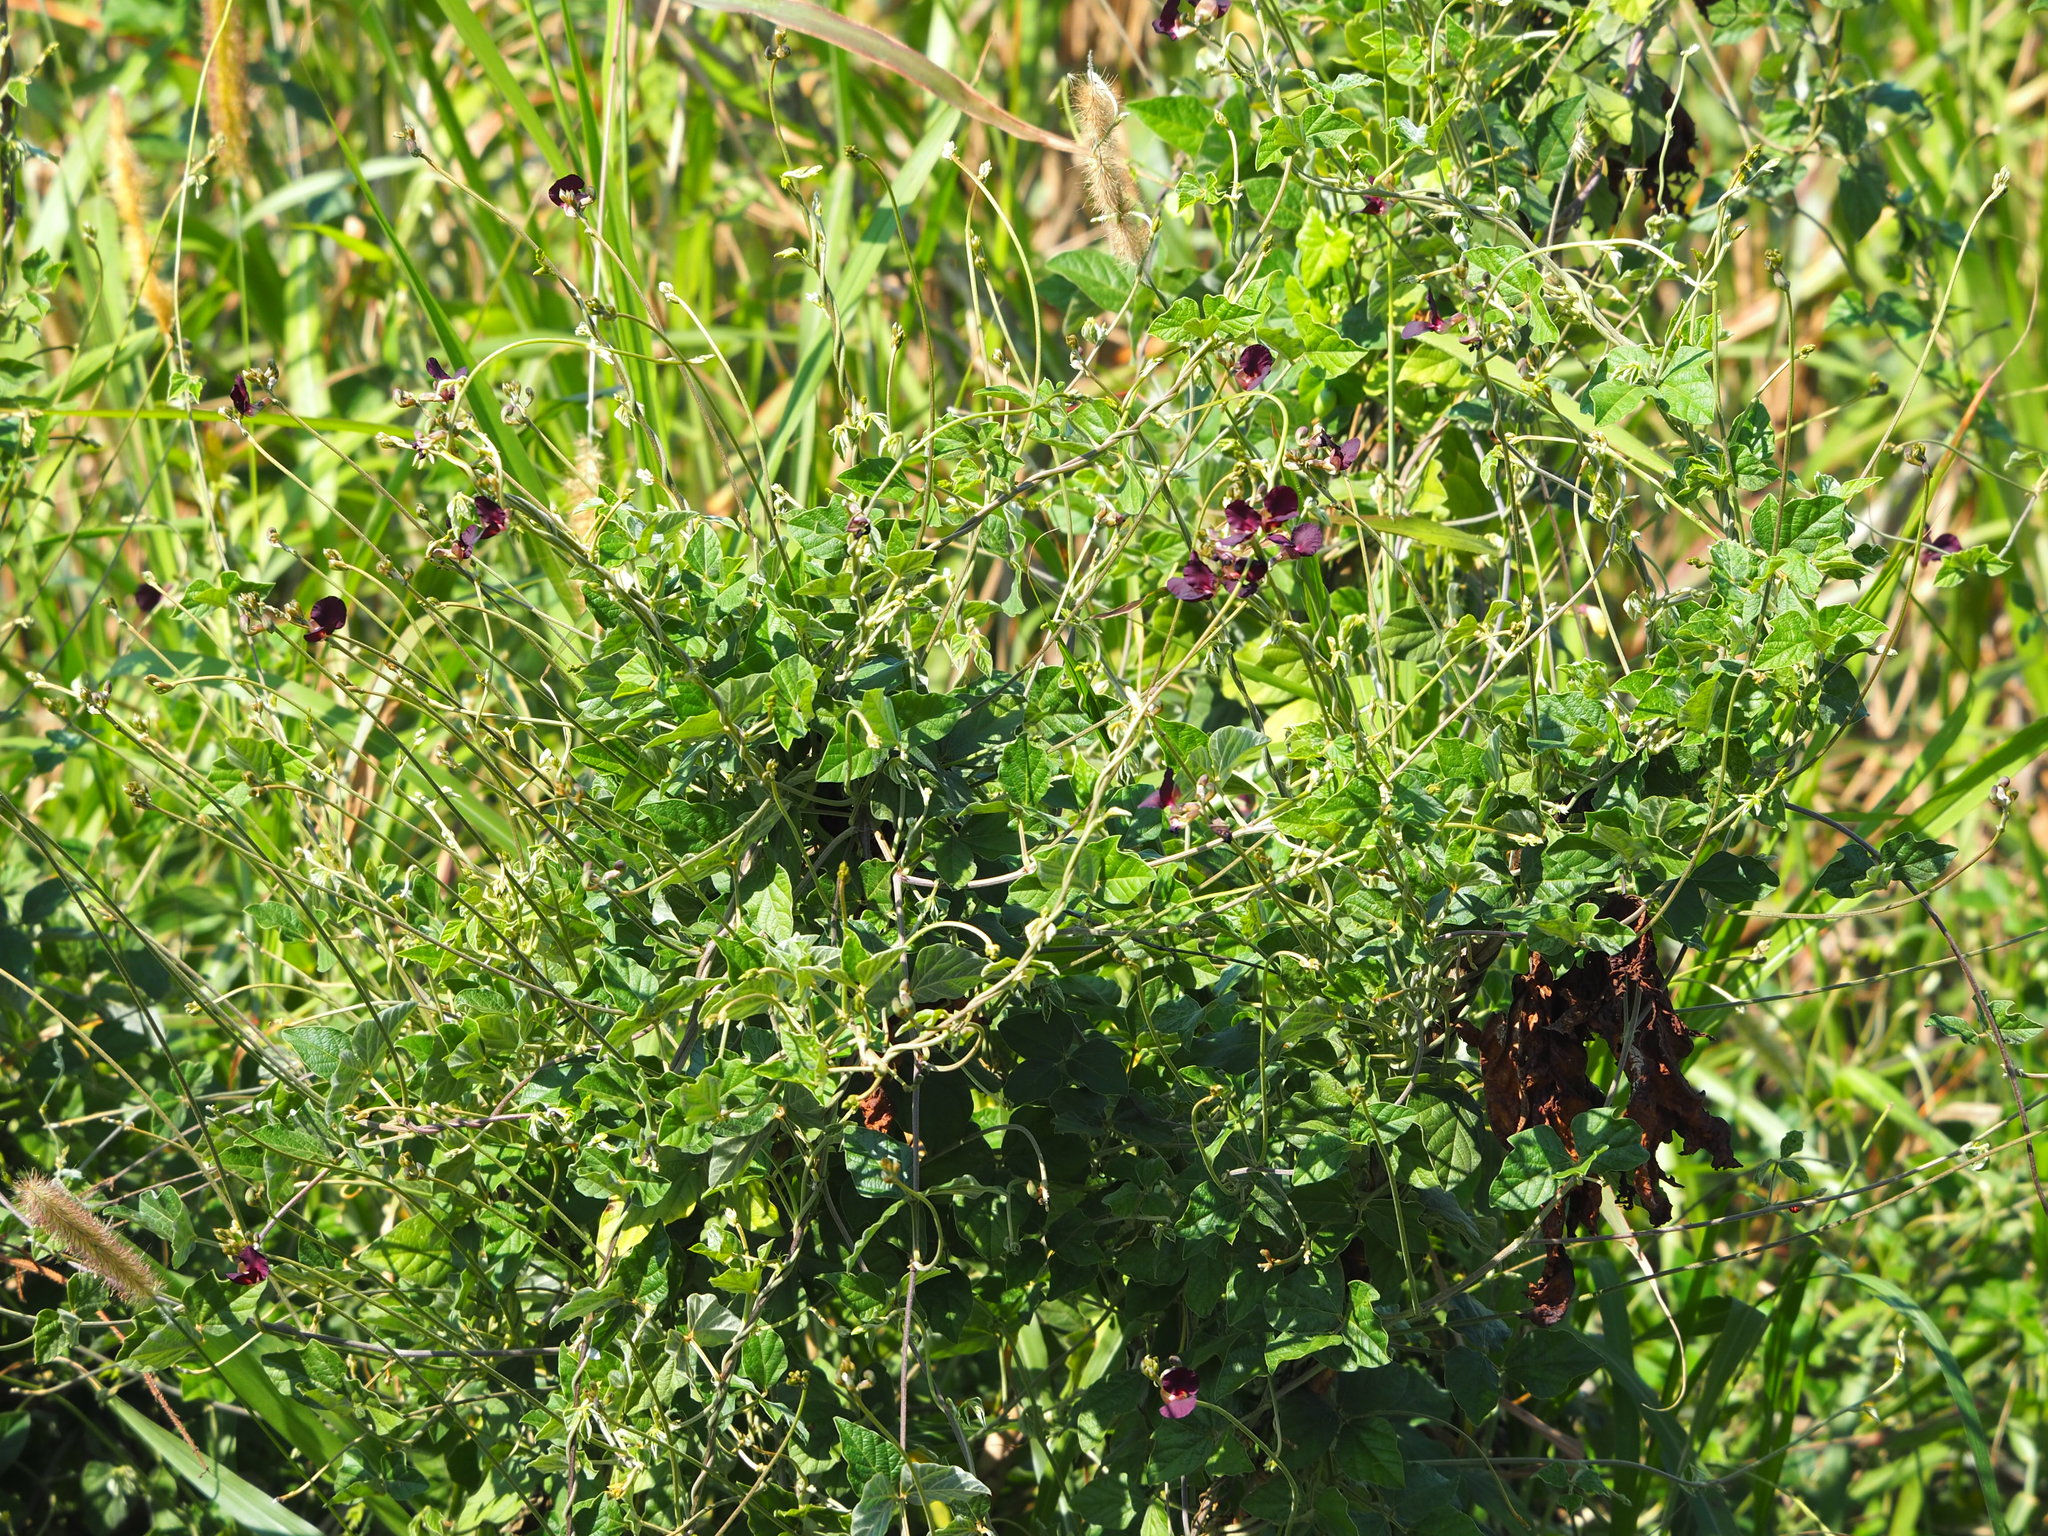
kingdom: Plantae
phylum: Tracheophyta
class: Magnoliopsida
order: Fabales
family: Fabaceae
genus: Macroptilium
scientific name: Macroptilium atropurpureum
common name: Purple bushbean
